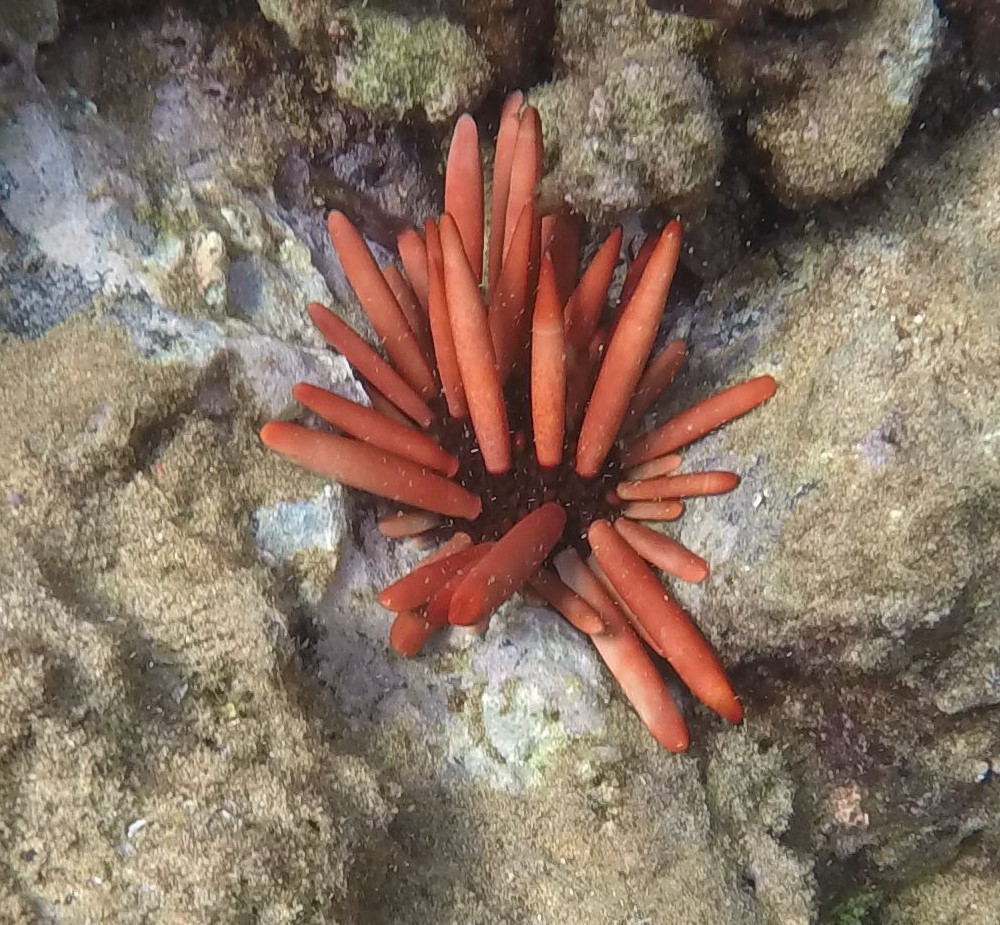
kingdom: Animalia
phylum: Echinodermata
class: Echinoidea
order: Camarodonta
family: Echinometridae
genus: Heterocentrotus
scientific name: Heterocentrotus mamillatus
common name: Slate pencil urchin
